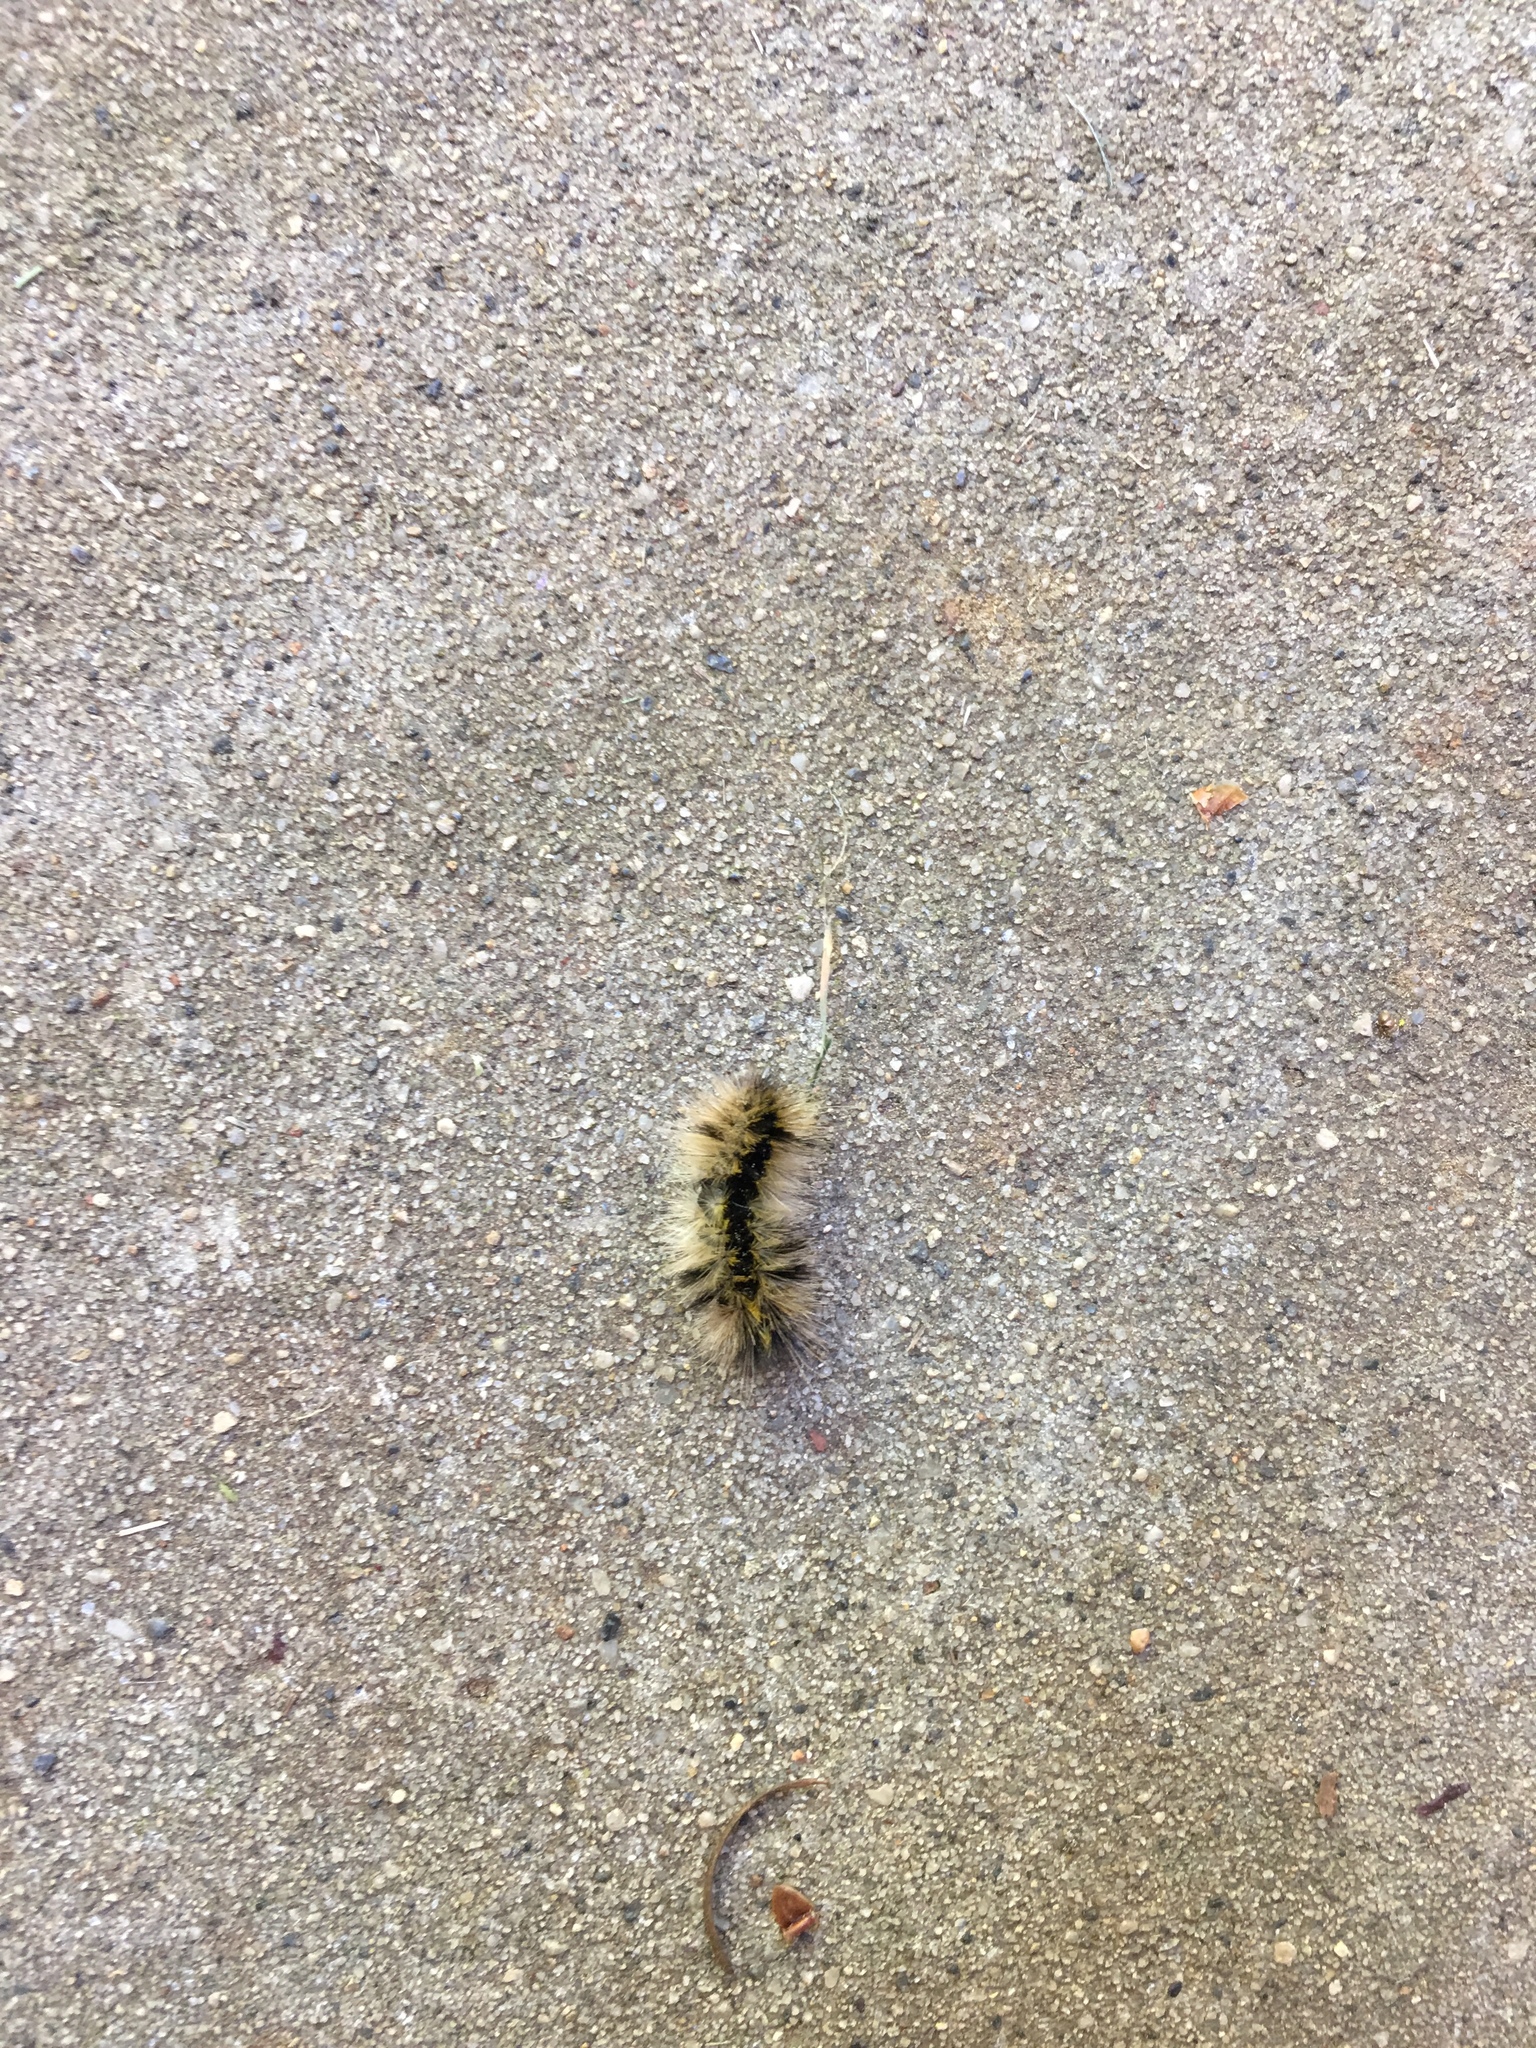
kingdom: Animalia
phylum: Arthropoda
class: Insecta
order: Lepidoptera
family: Erebidae
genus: Lophocampa
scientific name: Lophocampa argentata
